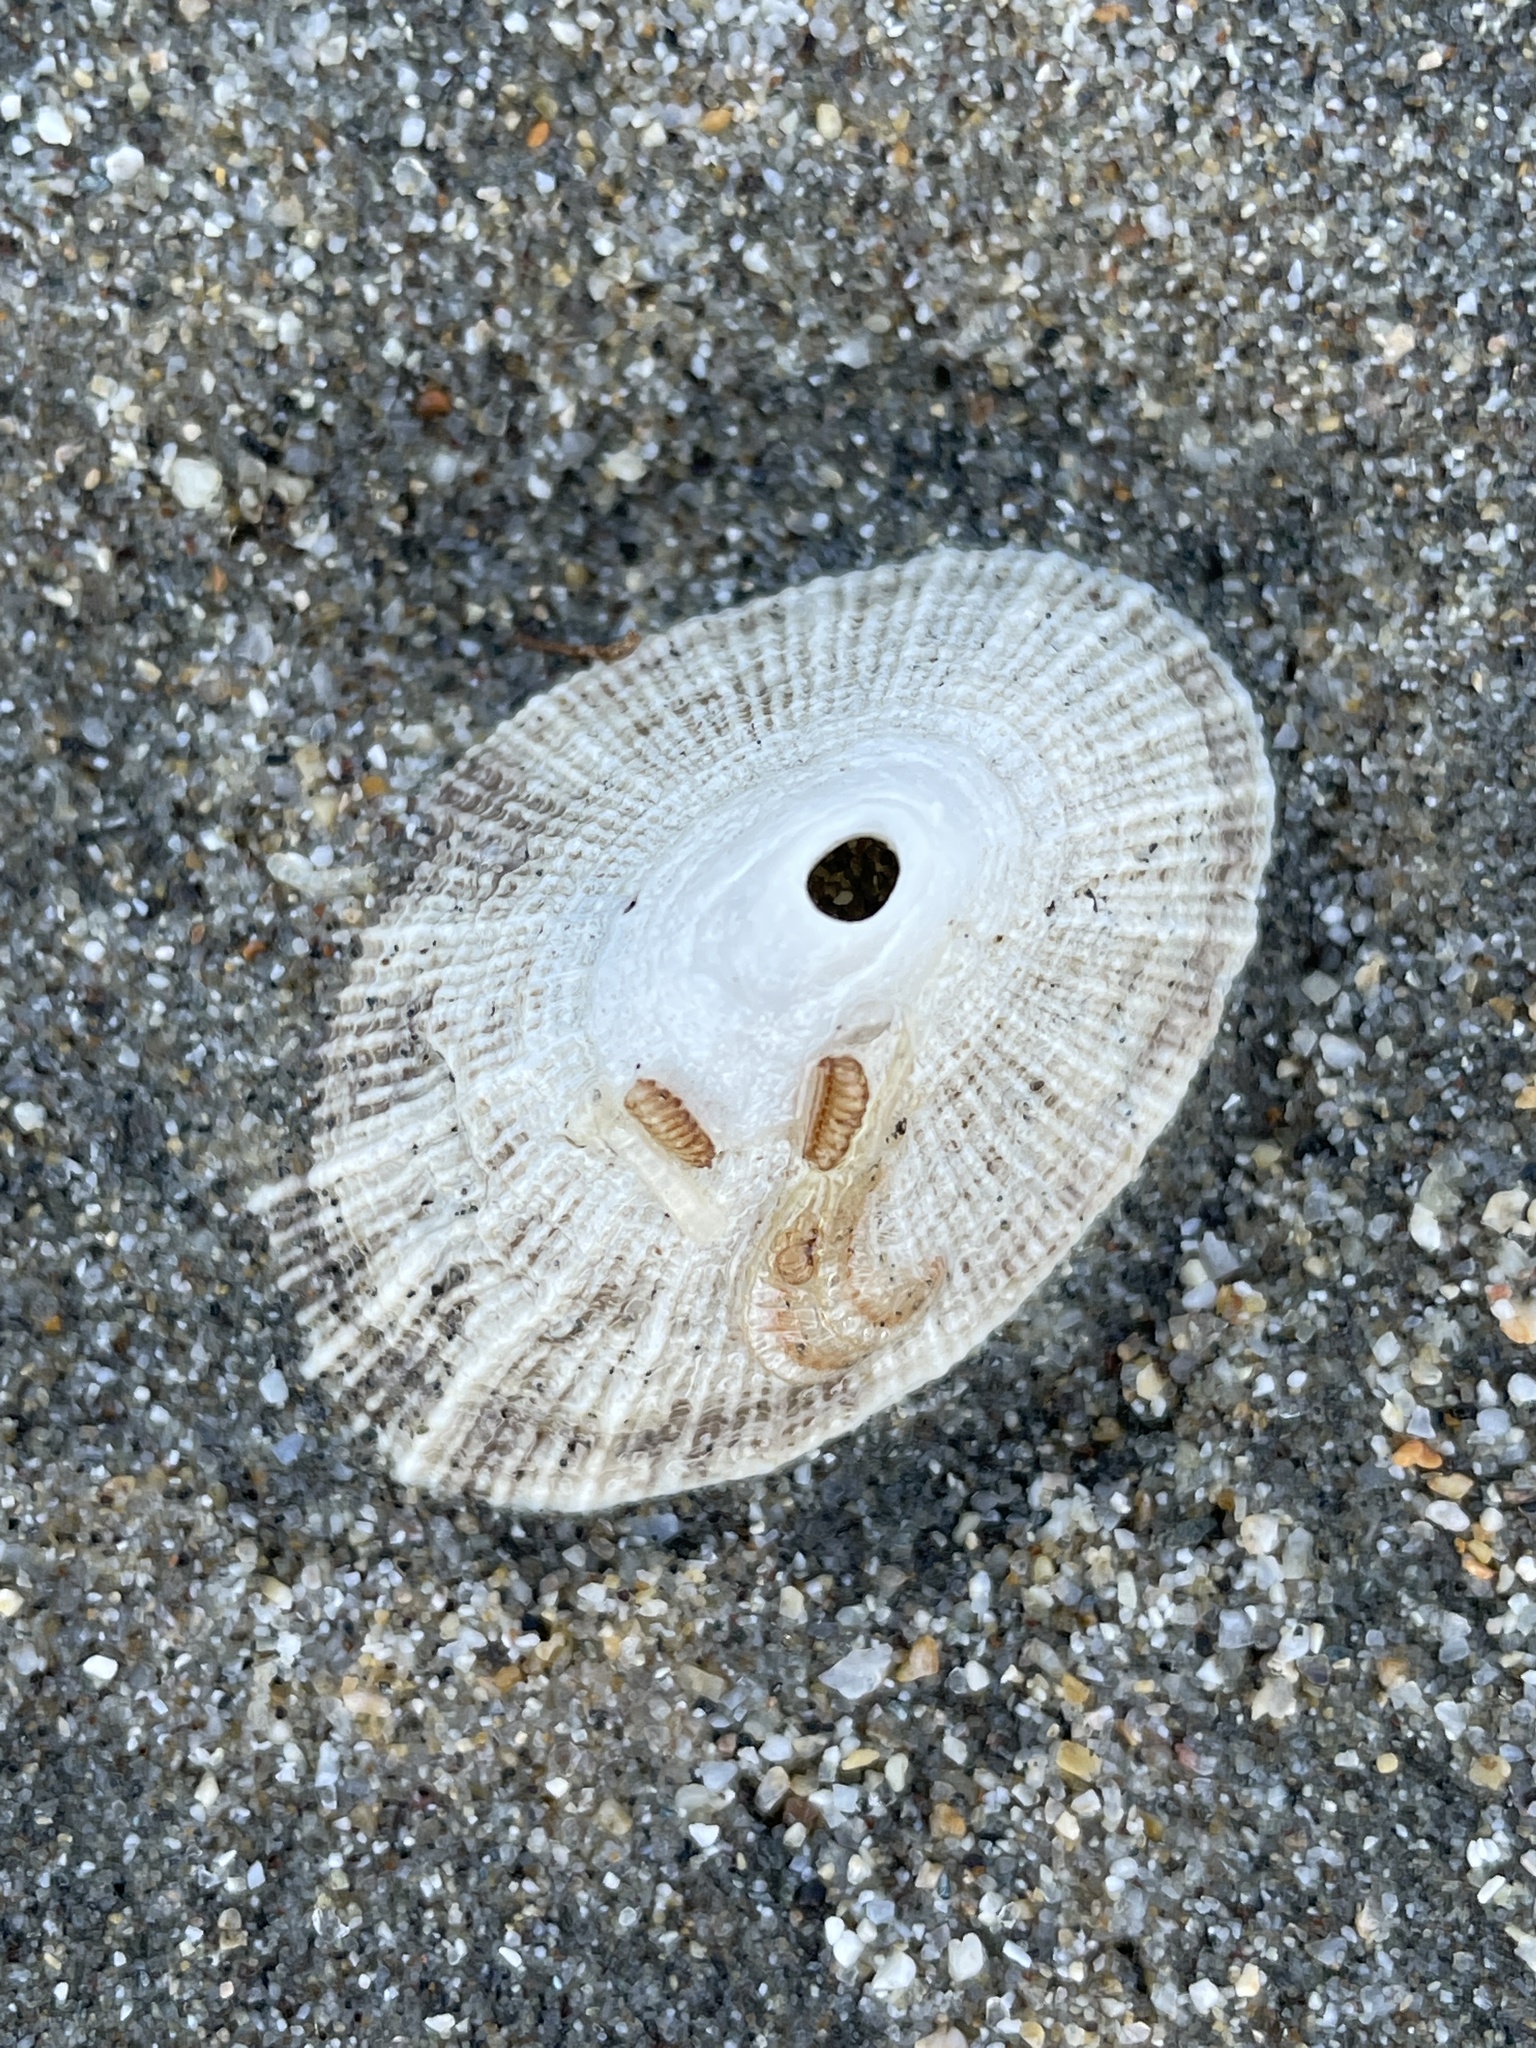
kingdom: Animalia
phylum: Mollusca
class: Gastropoda
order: Lepetellida
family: Fissurellidae
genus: Diodora
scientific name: Diodora aspera
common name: Rough keyhole limpet
